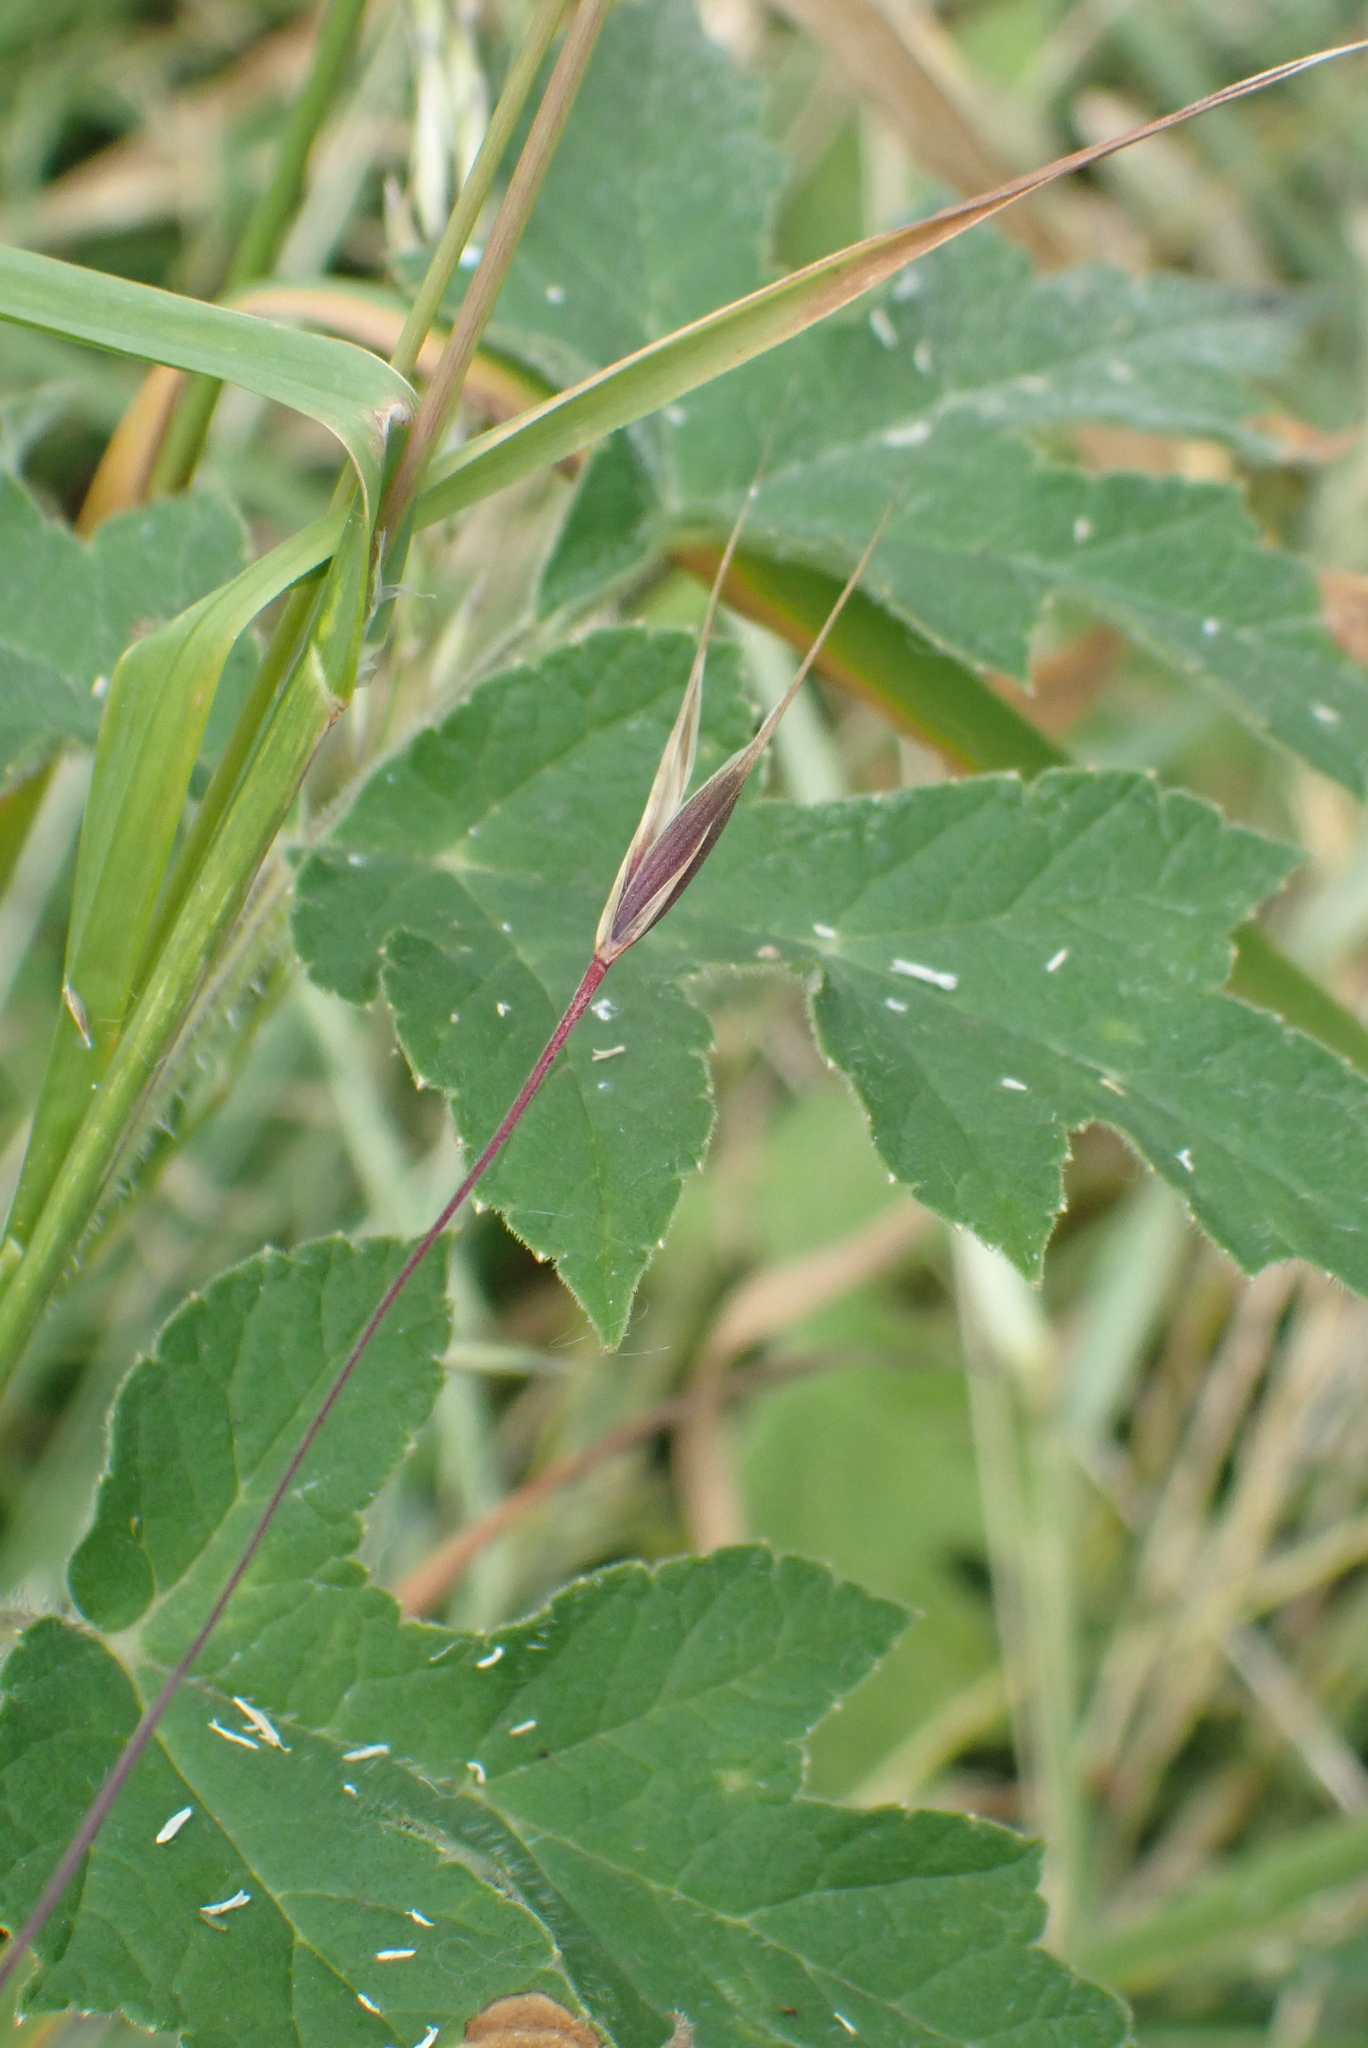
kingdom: Plantae
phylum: Tracheophyta
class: Magnoliopsida
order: Apiales
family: Apiaceae
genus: Heracleum
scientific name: Heracleum sphondylium
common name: Hogweed
